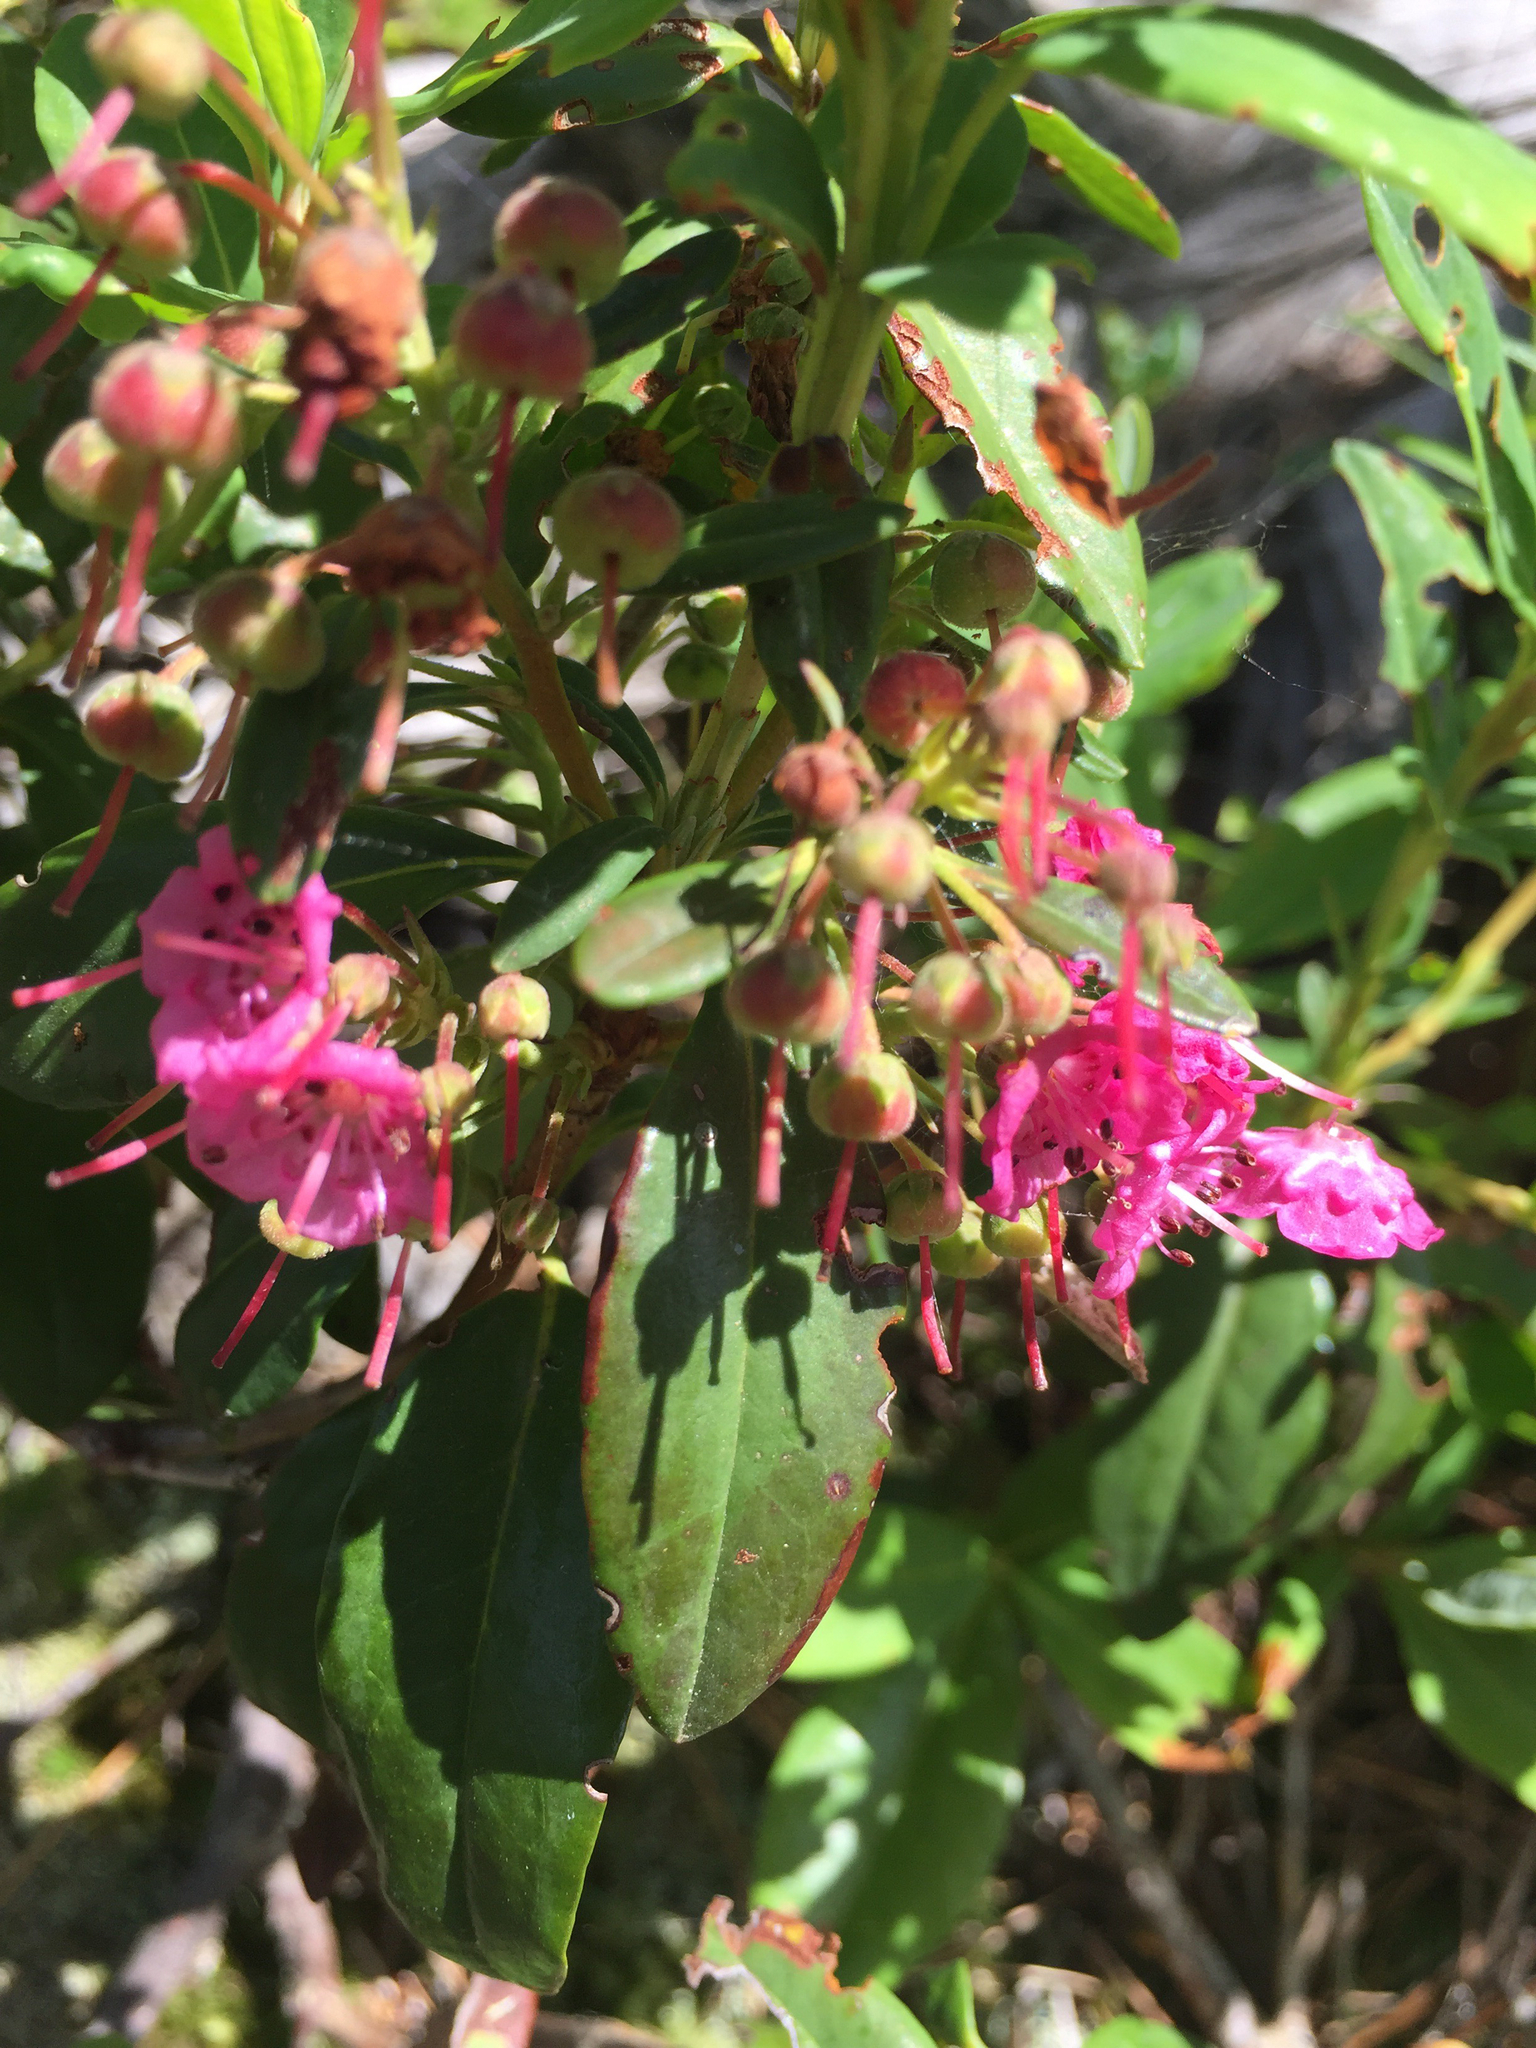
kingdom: Plantae
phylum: Tracheophyta
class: Magnoliopsida
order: Ericales
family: Ericaceae
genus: Kalmia
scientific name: Kalmia angustifolia
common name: Sheep-laurel
